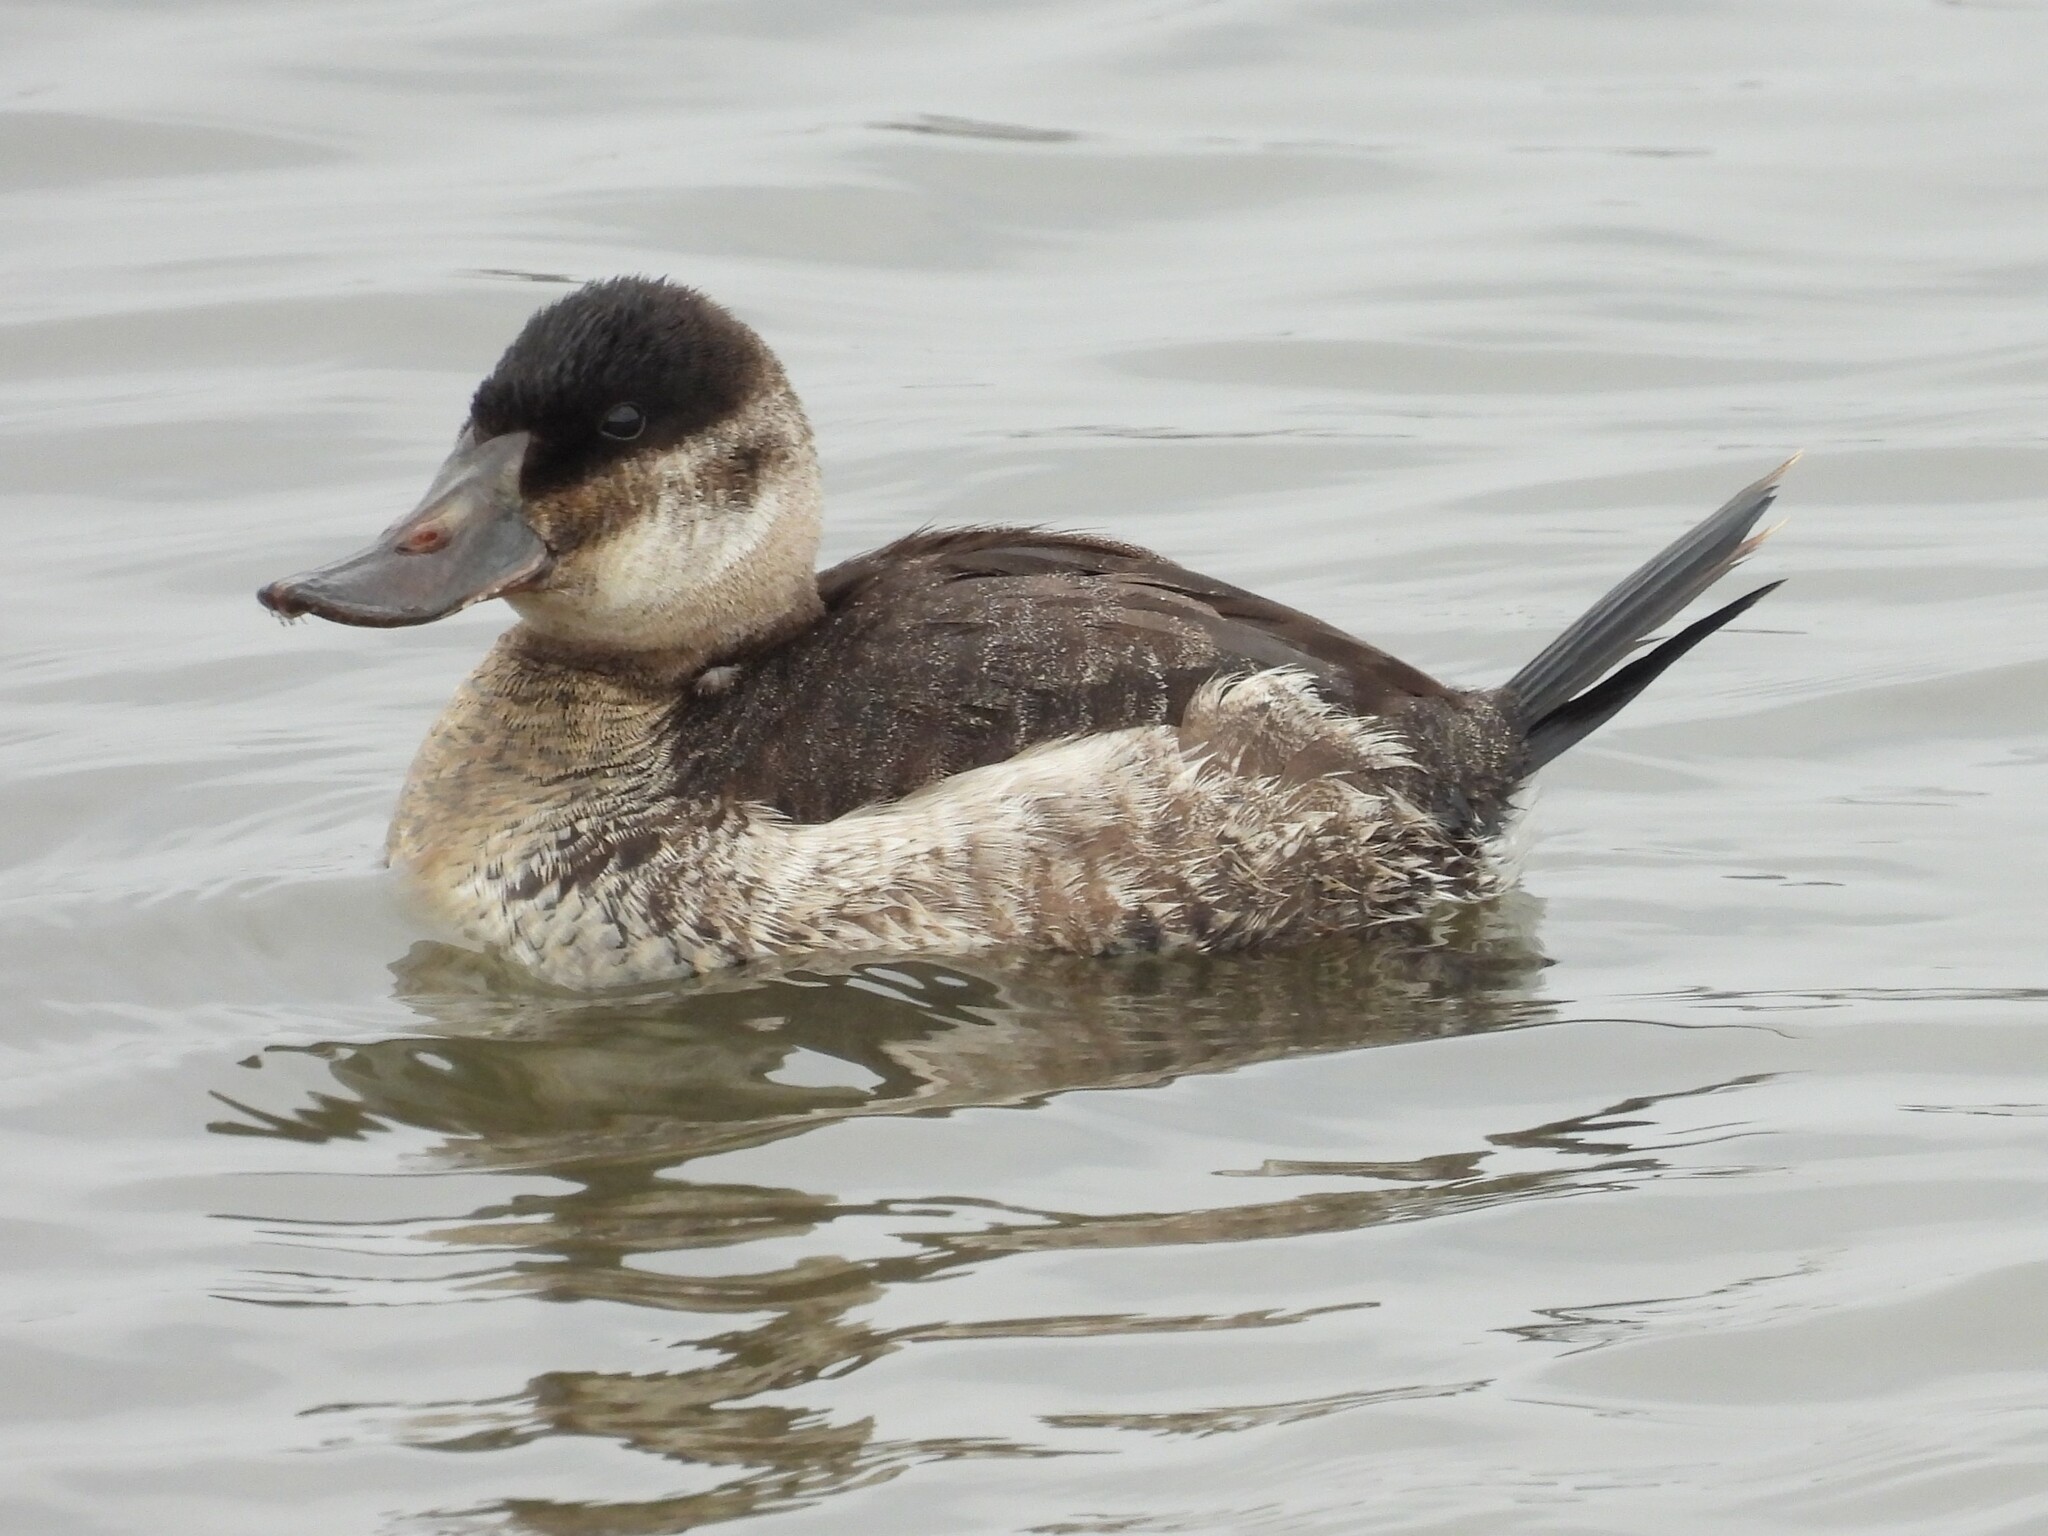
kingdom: Animalia
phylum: Chordata
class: Aves
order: Anseriformes
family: Anatidae
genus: Oxyura
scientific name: Oxyura jamaicensis
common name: Ruddy duck
